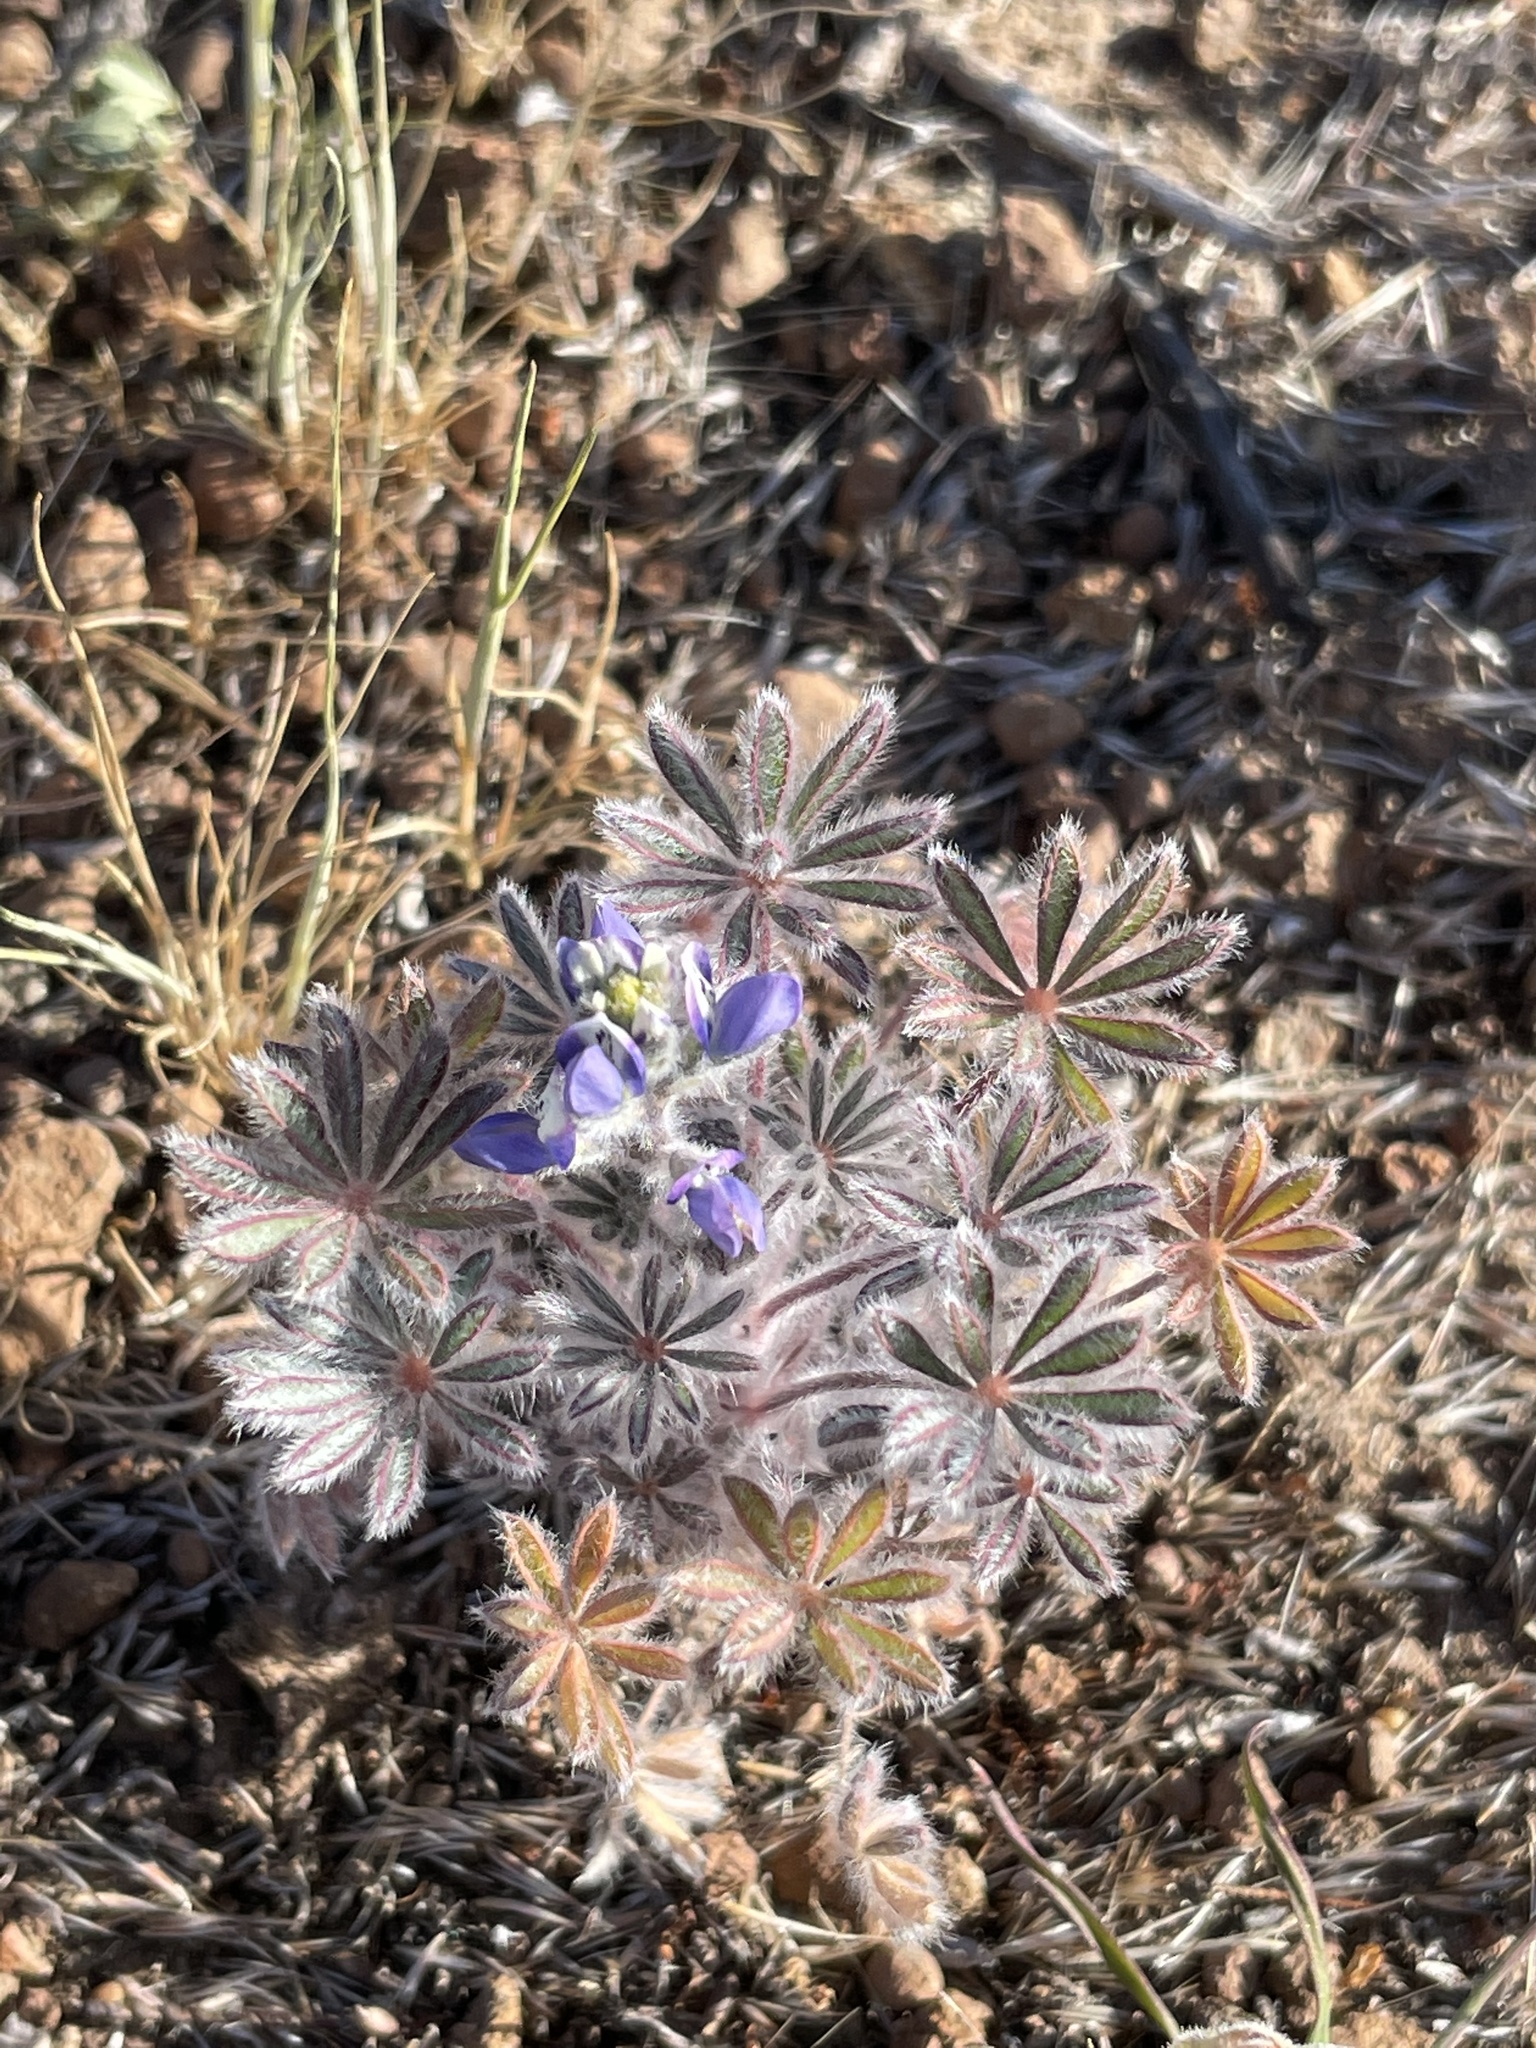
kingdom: Plantae
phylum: Tracheophyta
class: Magnoliopsida
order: Fabales
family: Fabaceae
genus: Lupinus
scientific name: Lupinus bicolor
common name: Miniature lupine
